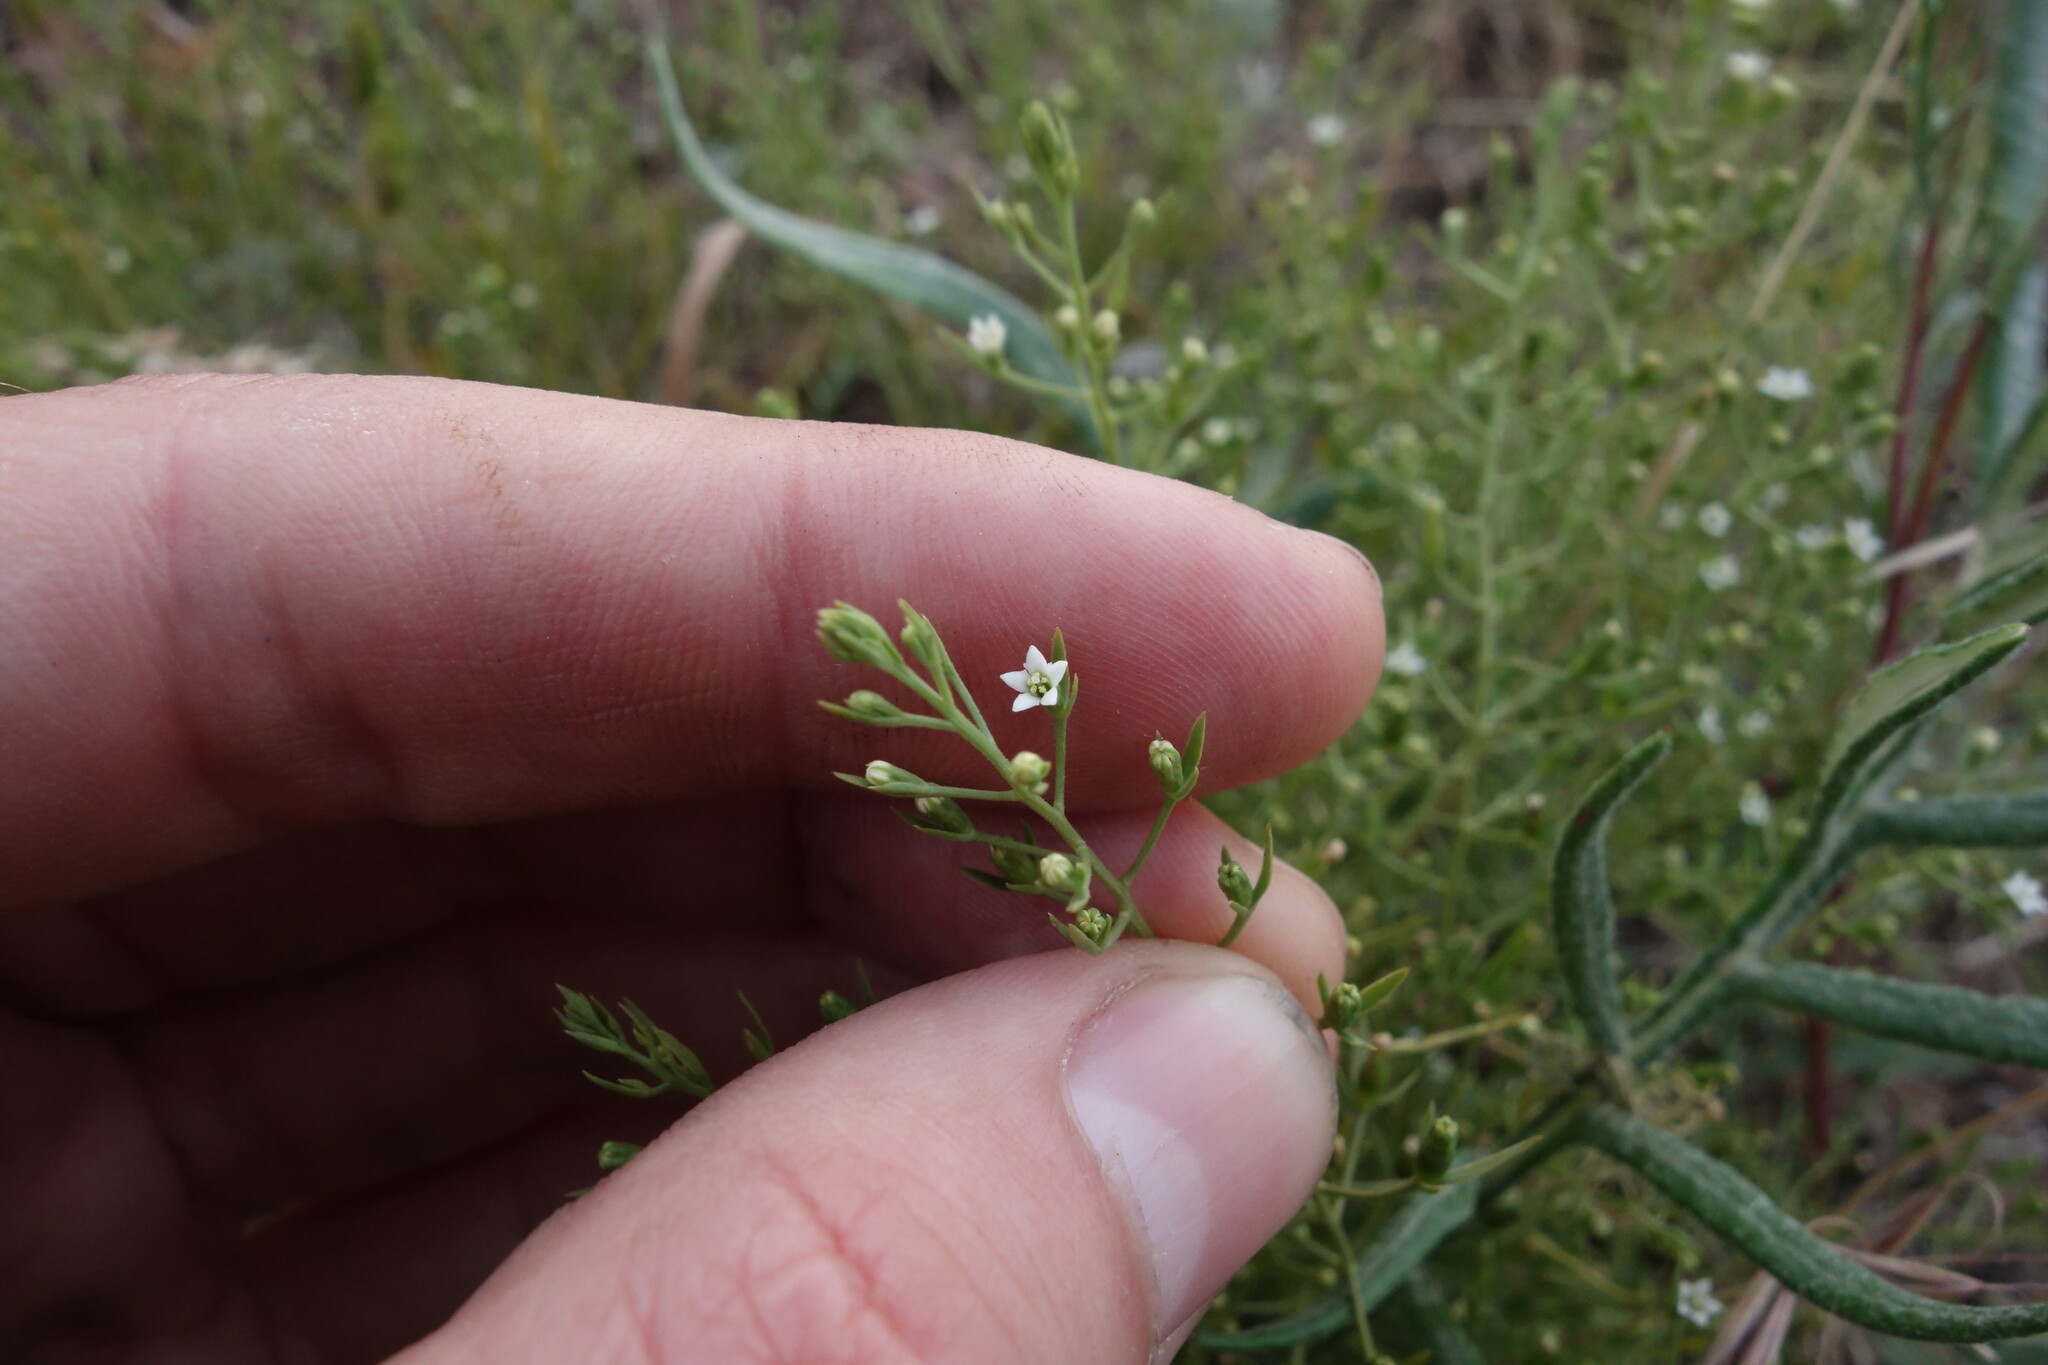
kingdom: Plantae
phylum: Tracheophyta
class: Magnoliopsida
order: Santalales
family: Thesiaceae
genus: Thesium
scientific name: Thesium ramosum
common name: Field thesium
